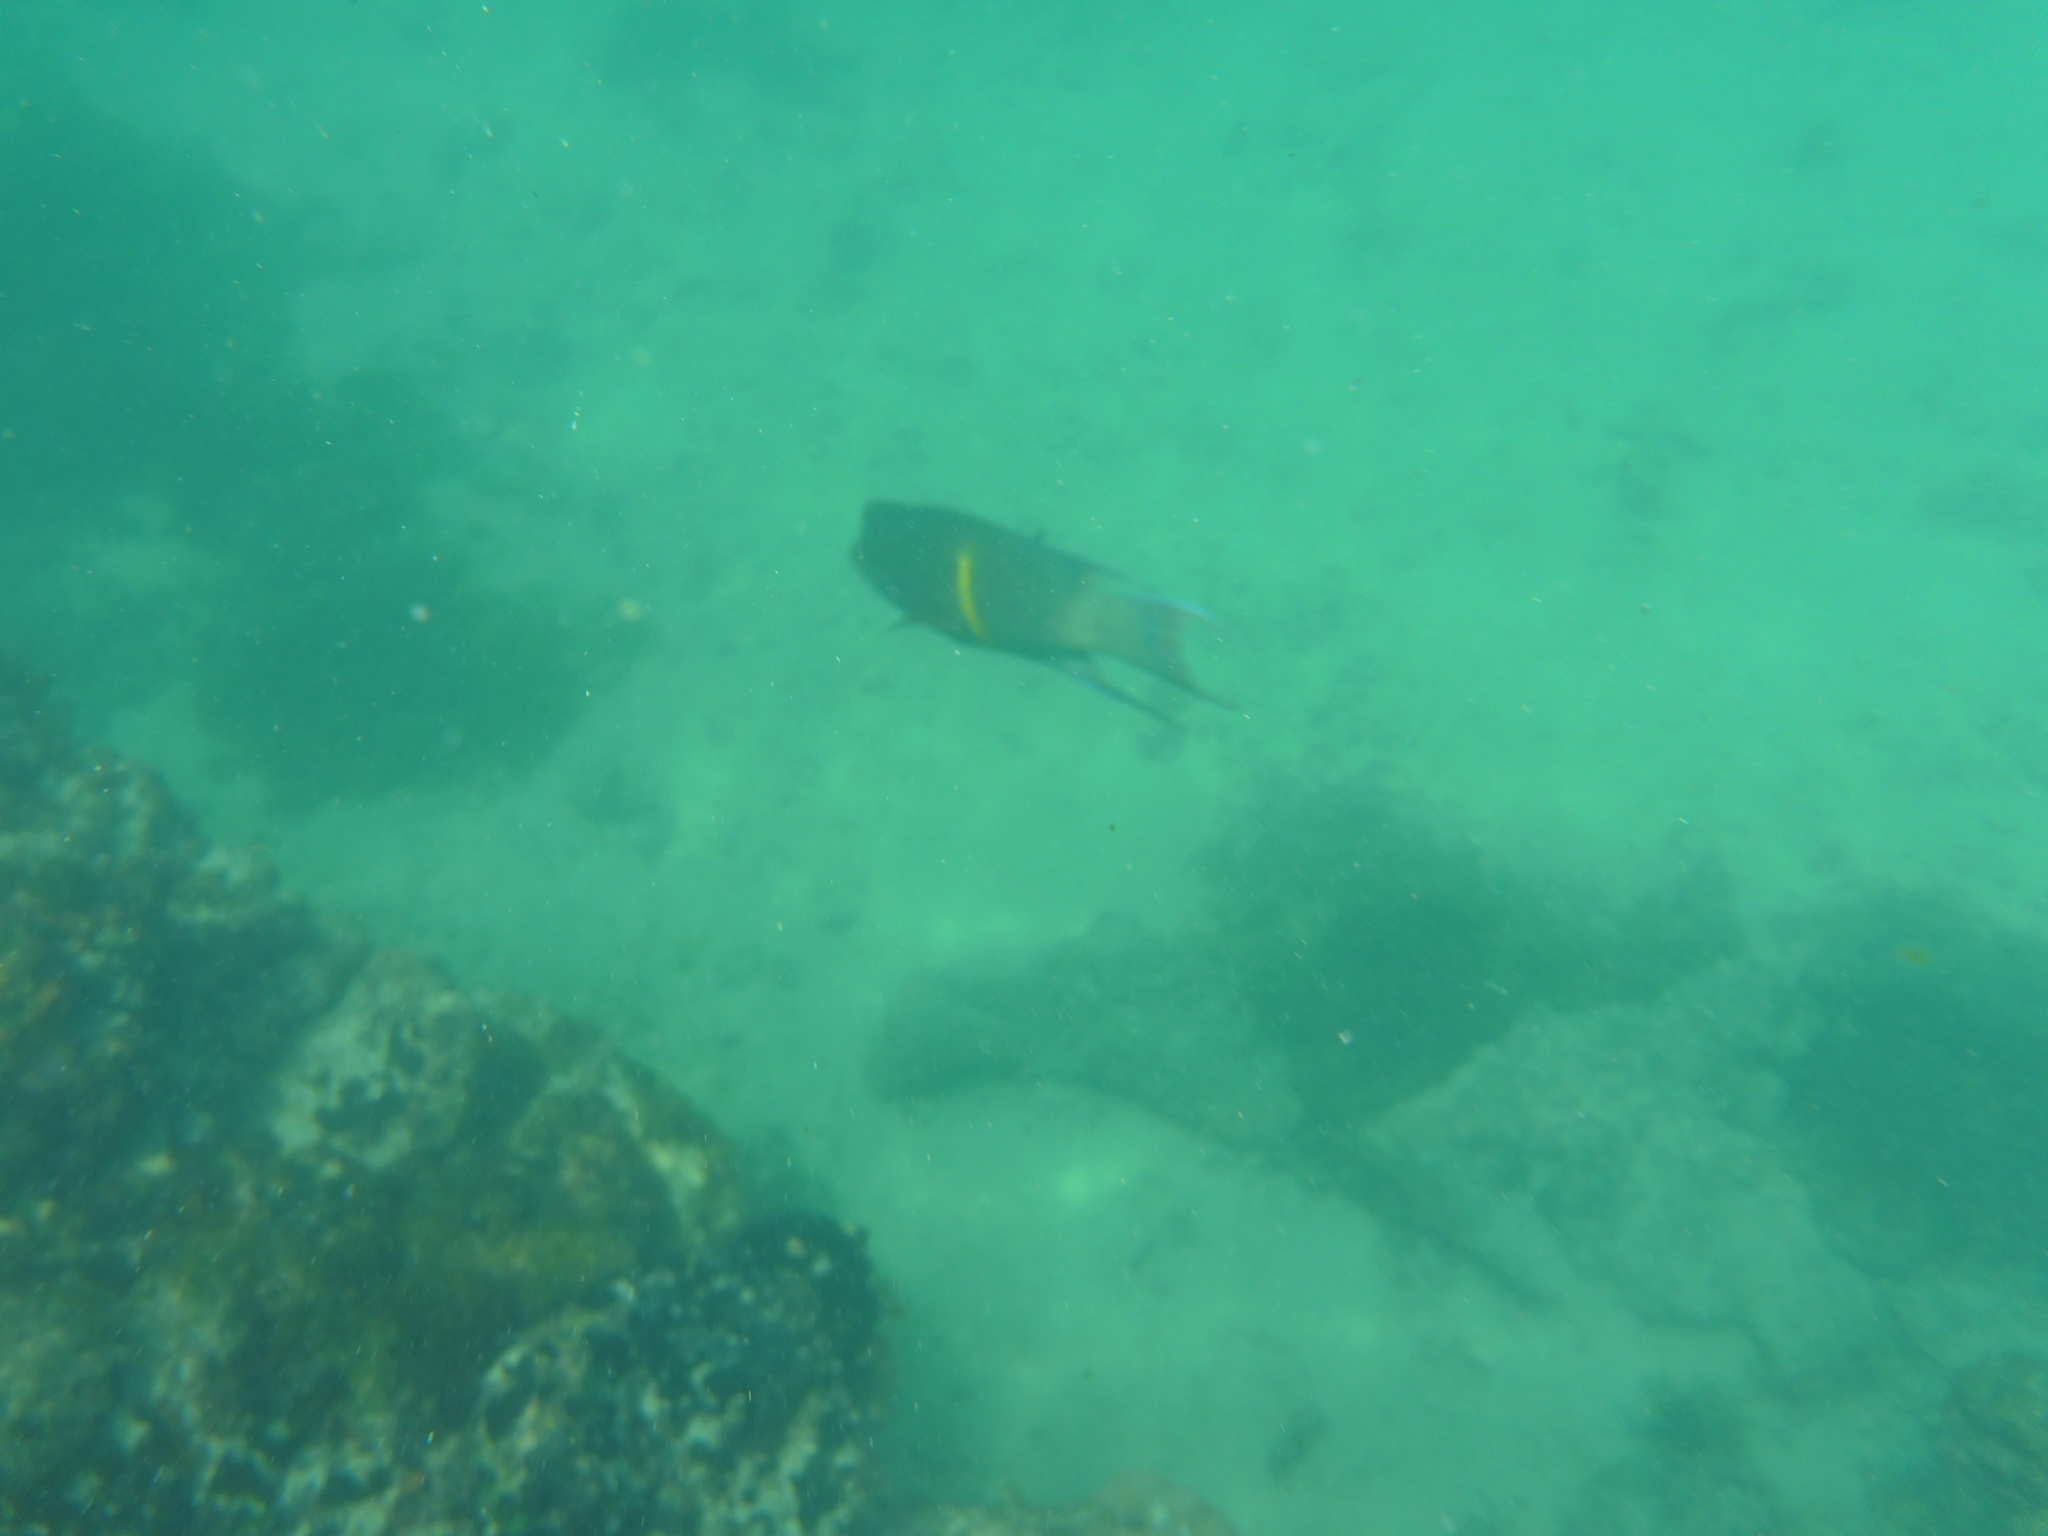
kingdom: Animalia
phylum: Chordata
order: Perciformes
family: Labridae
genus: Bodianus
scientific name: Bodianus diplotaenia
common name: Mexican hogfish
